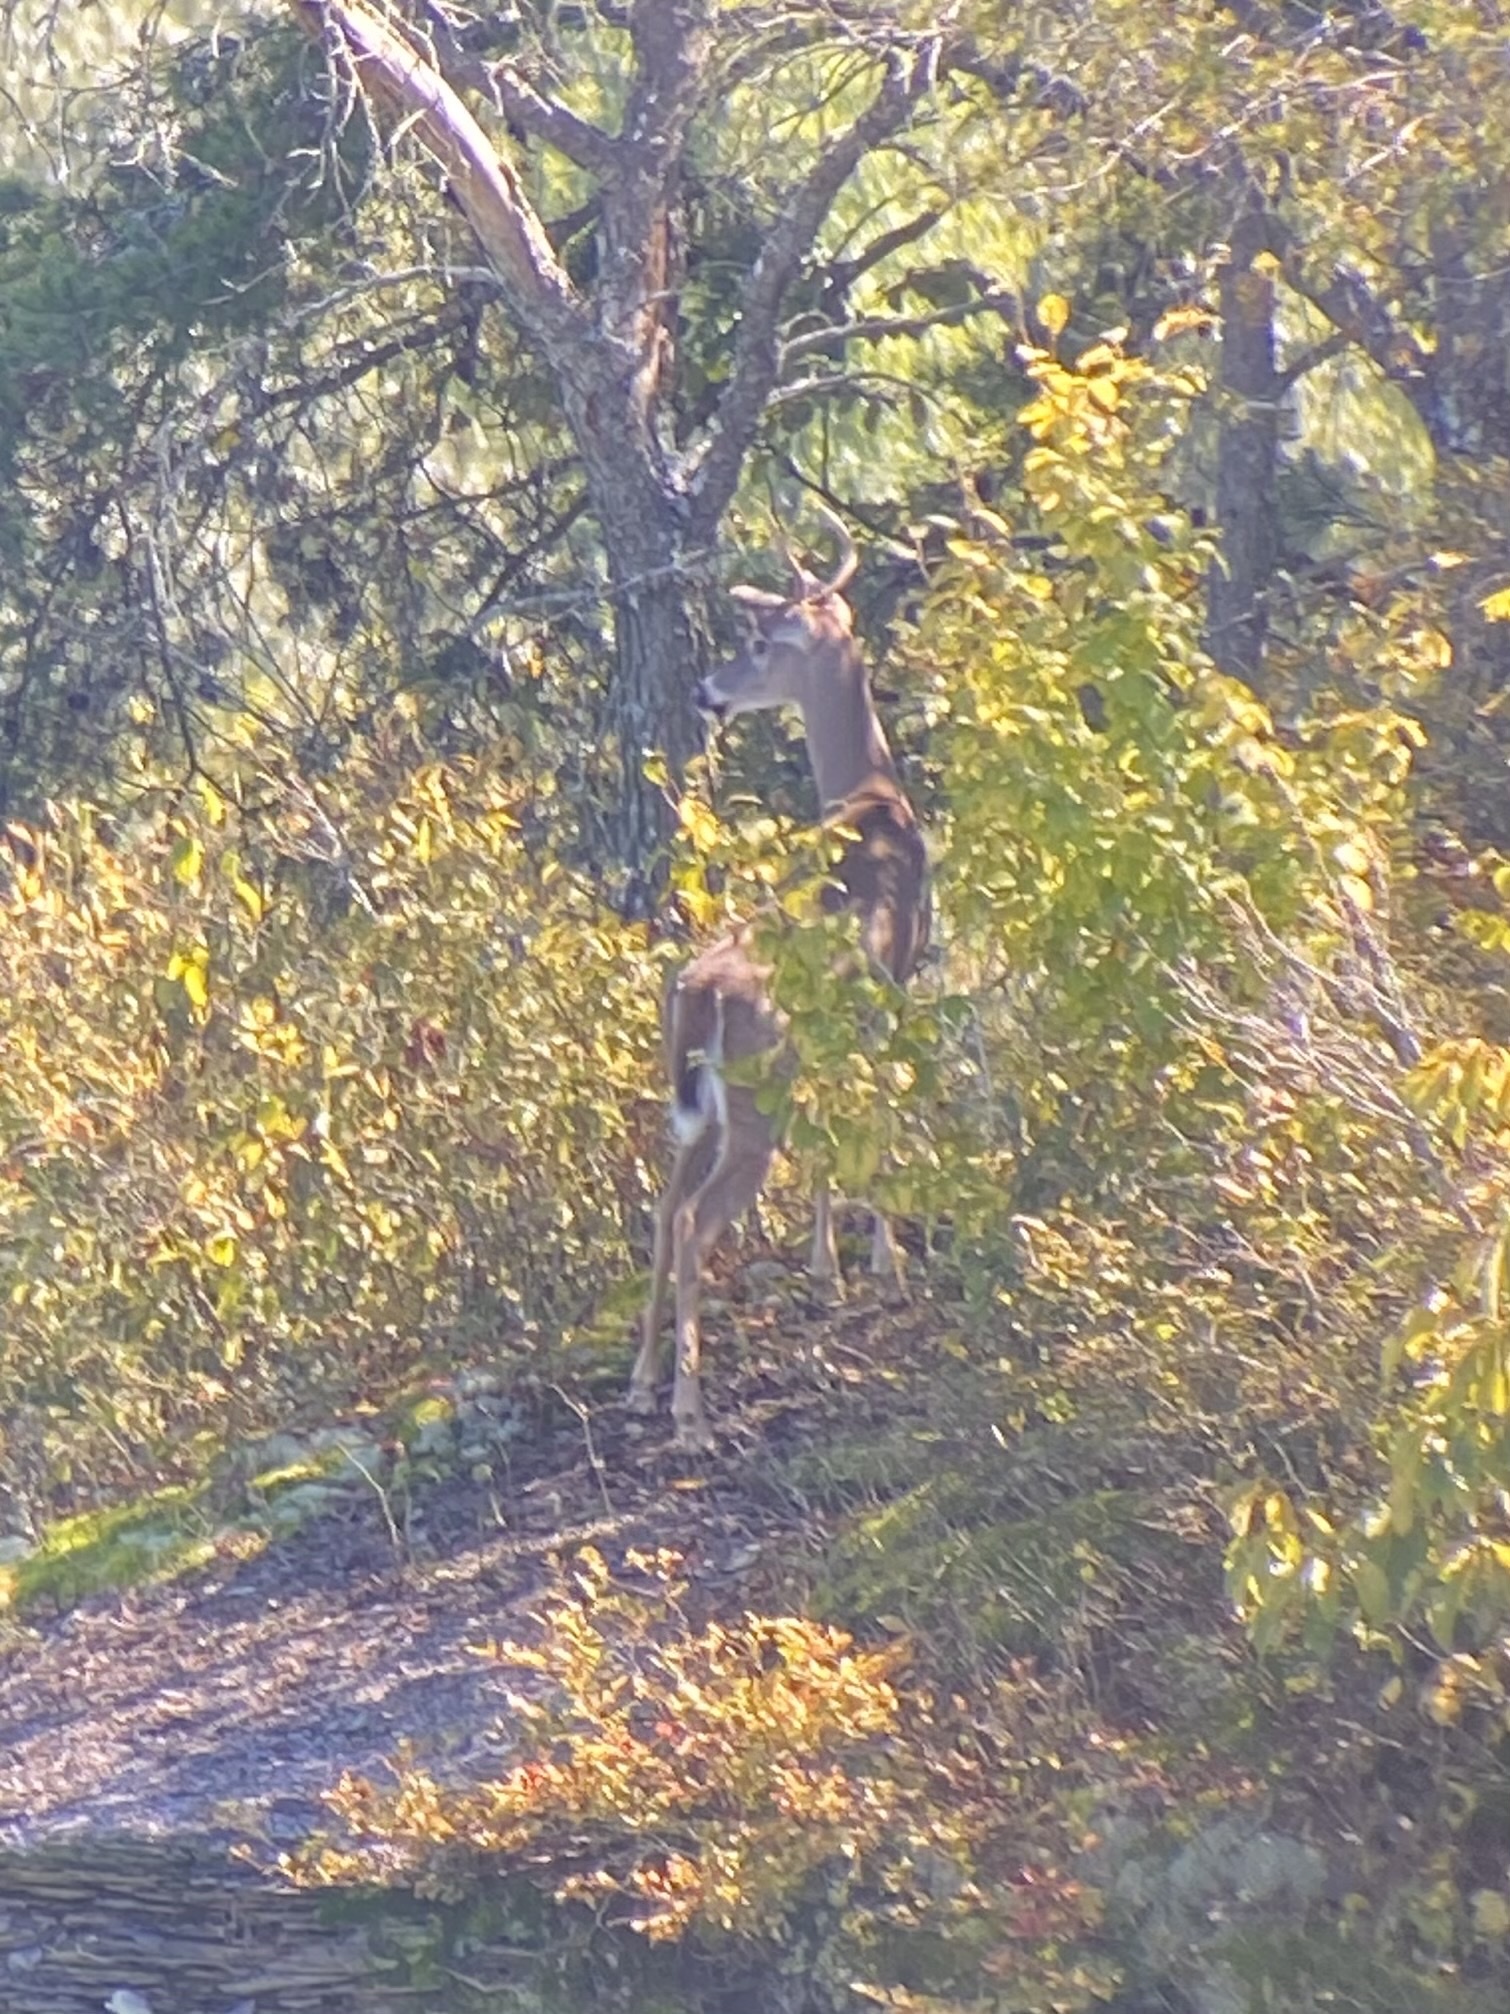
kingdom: Animalia
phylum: Chordata
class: Mammalia
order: Artiodactyla
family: Cervidae
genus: Odocoileus
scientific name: Odocoileus virginianus
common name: White-tailed deer
